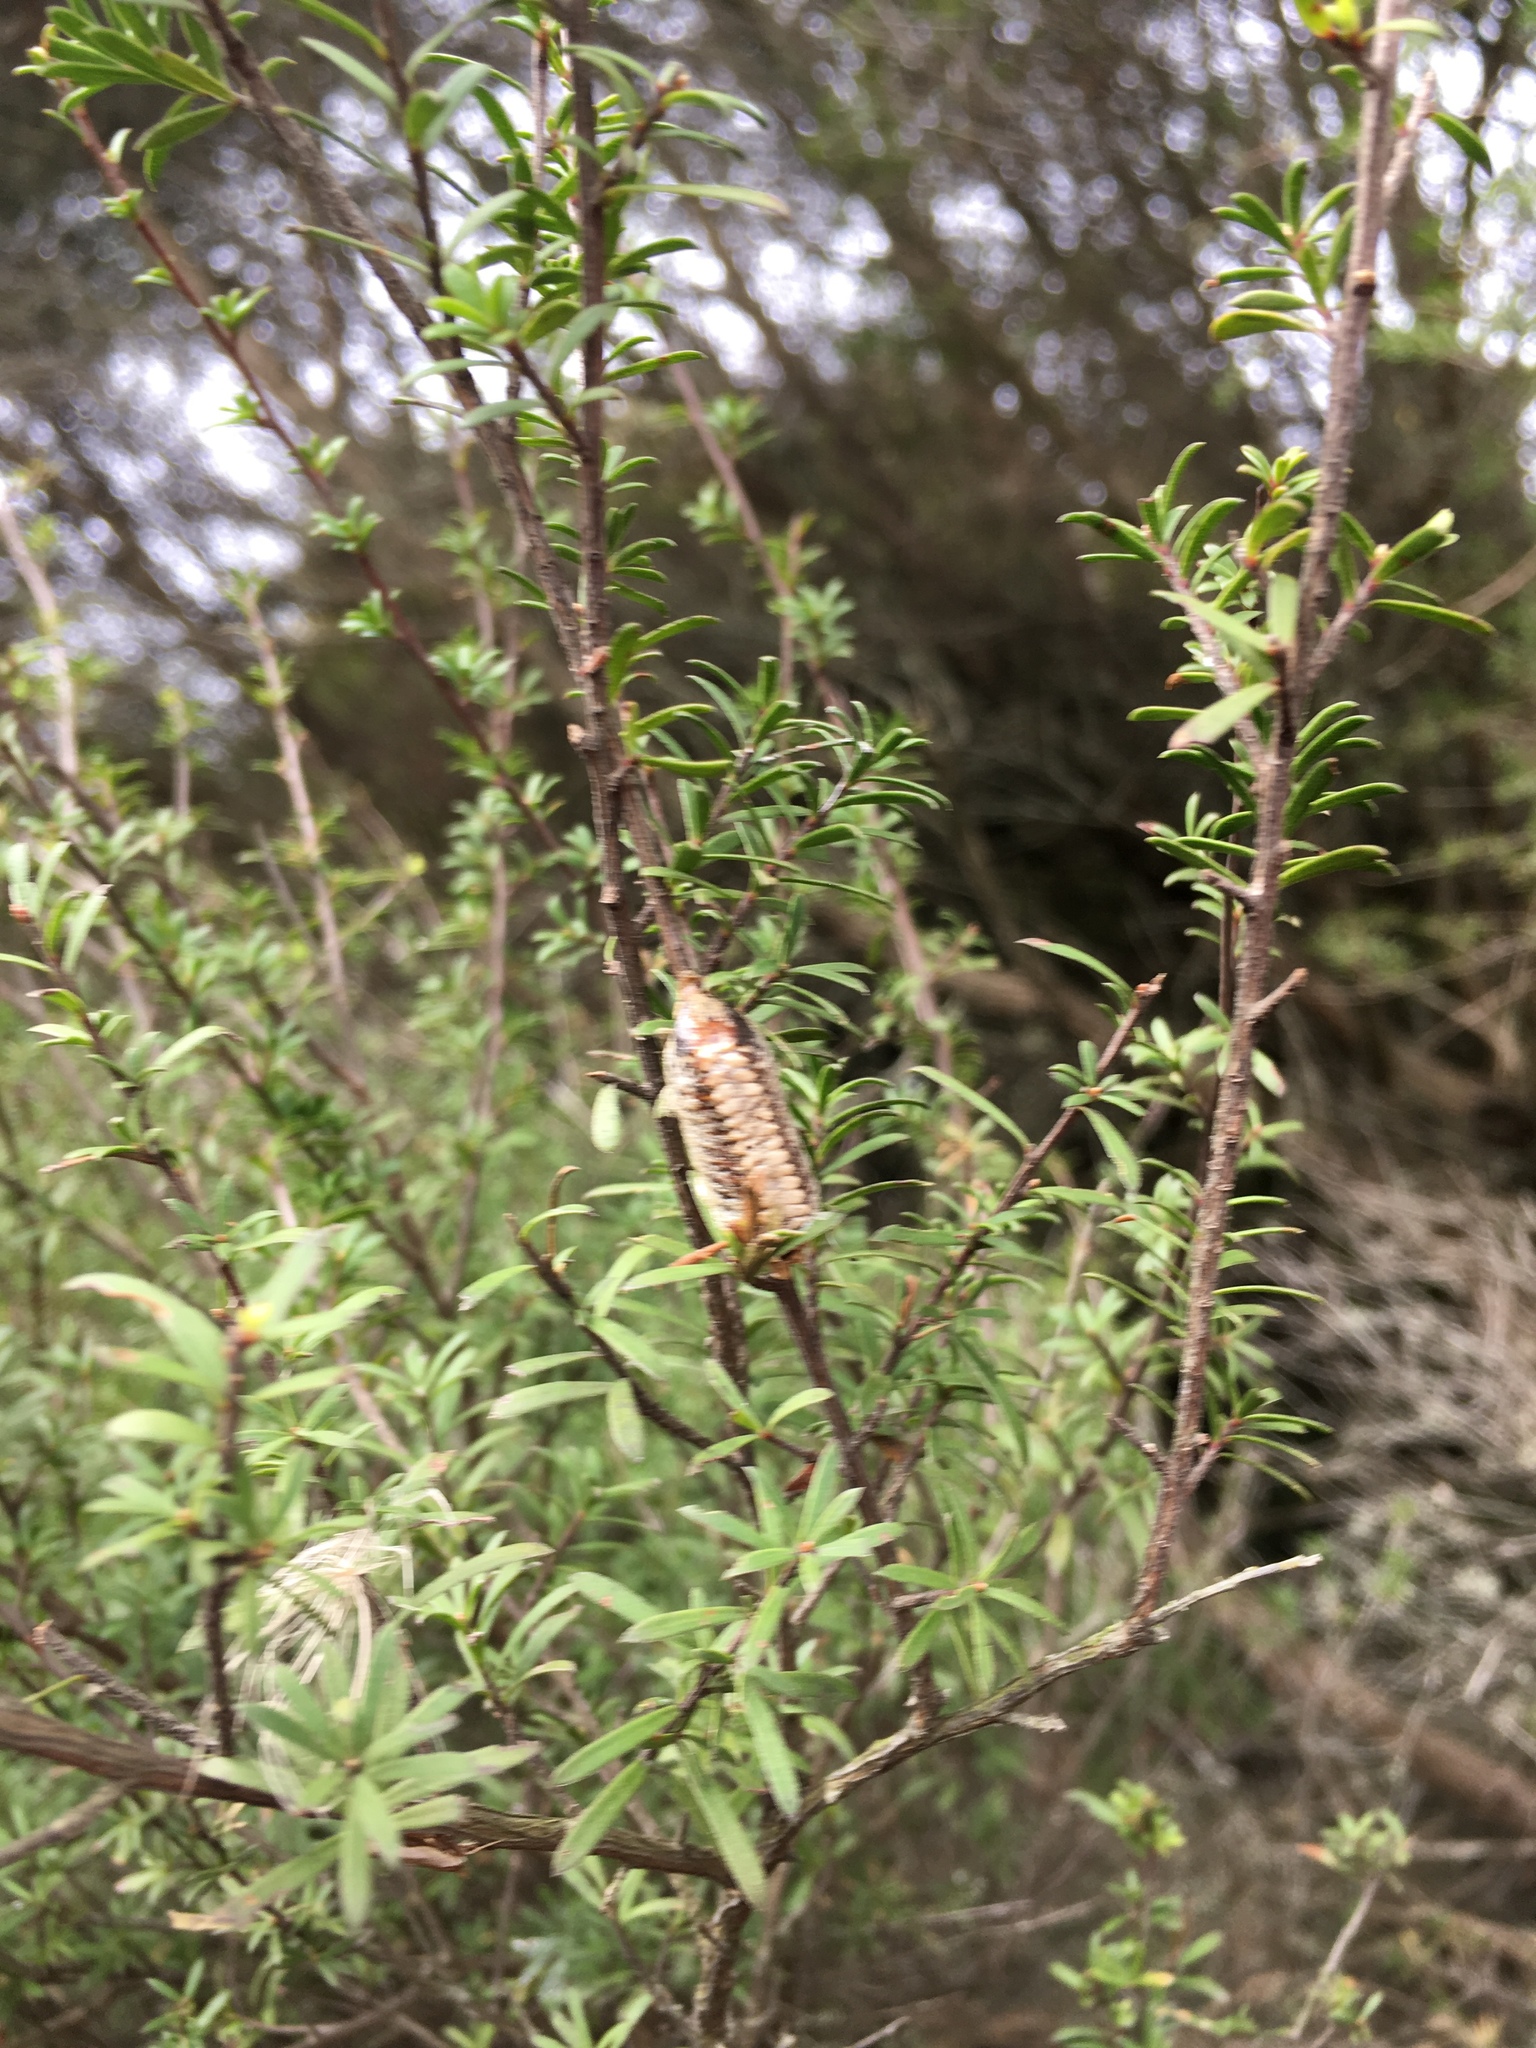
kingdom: Animalia
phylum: Arthropoda
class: Insecta
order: Mantodea
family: Mantidae
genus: Orthodera
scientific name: Orthodera novaezealandiae
